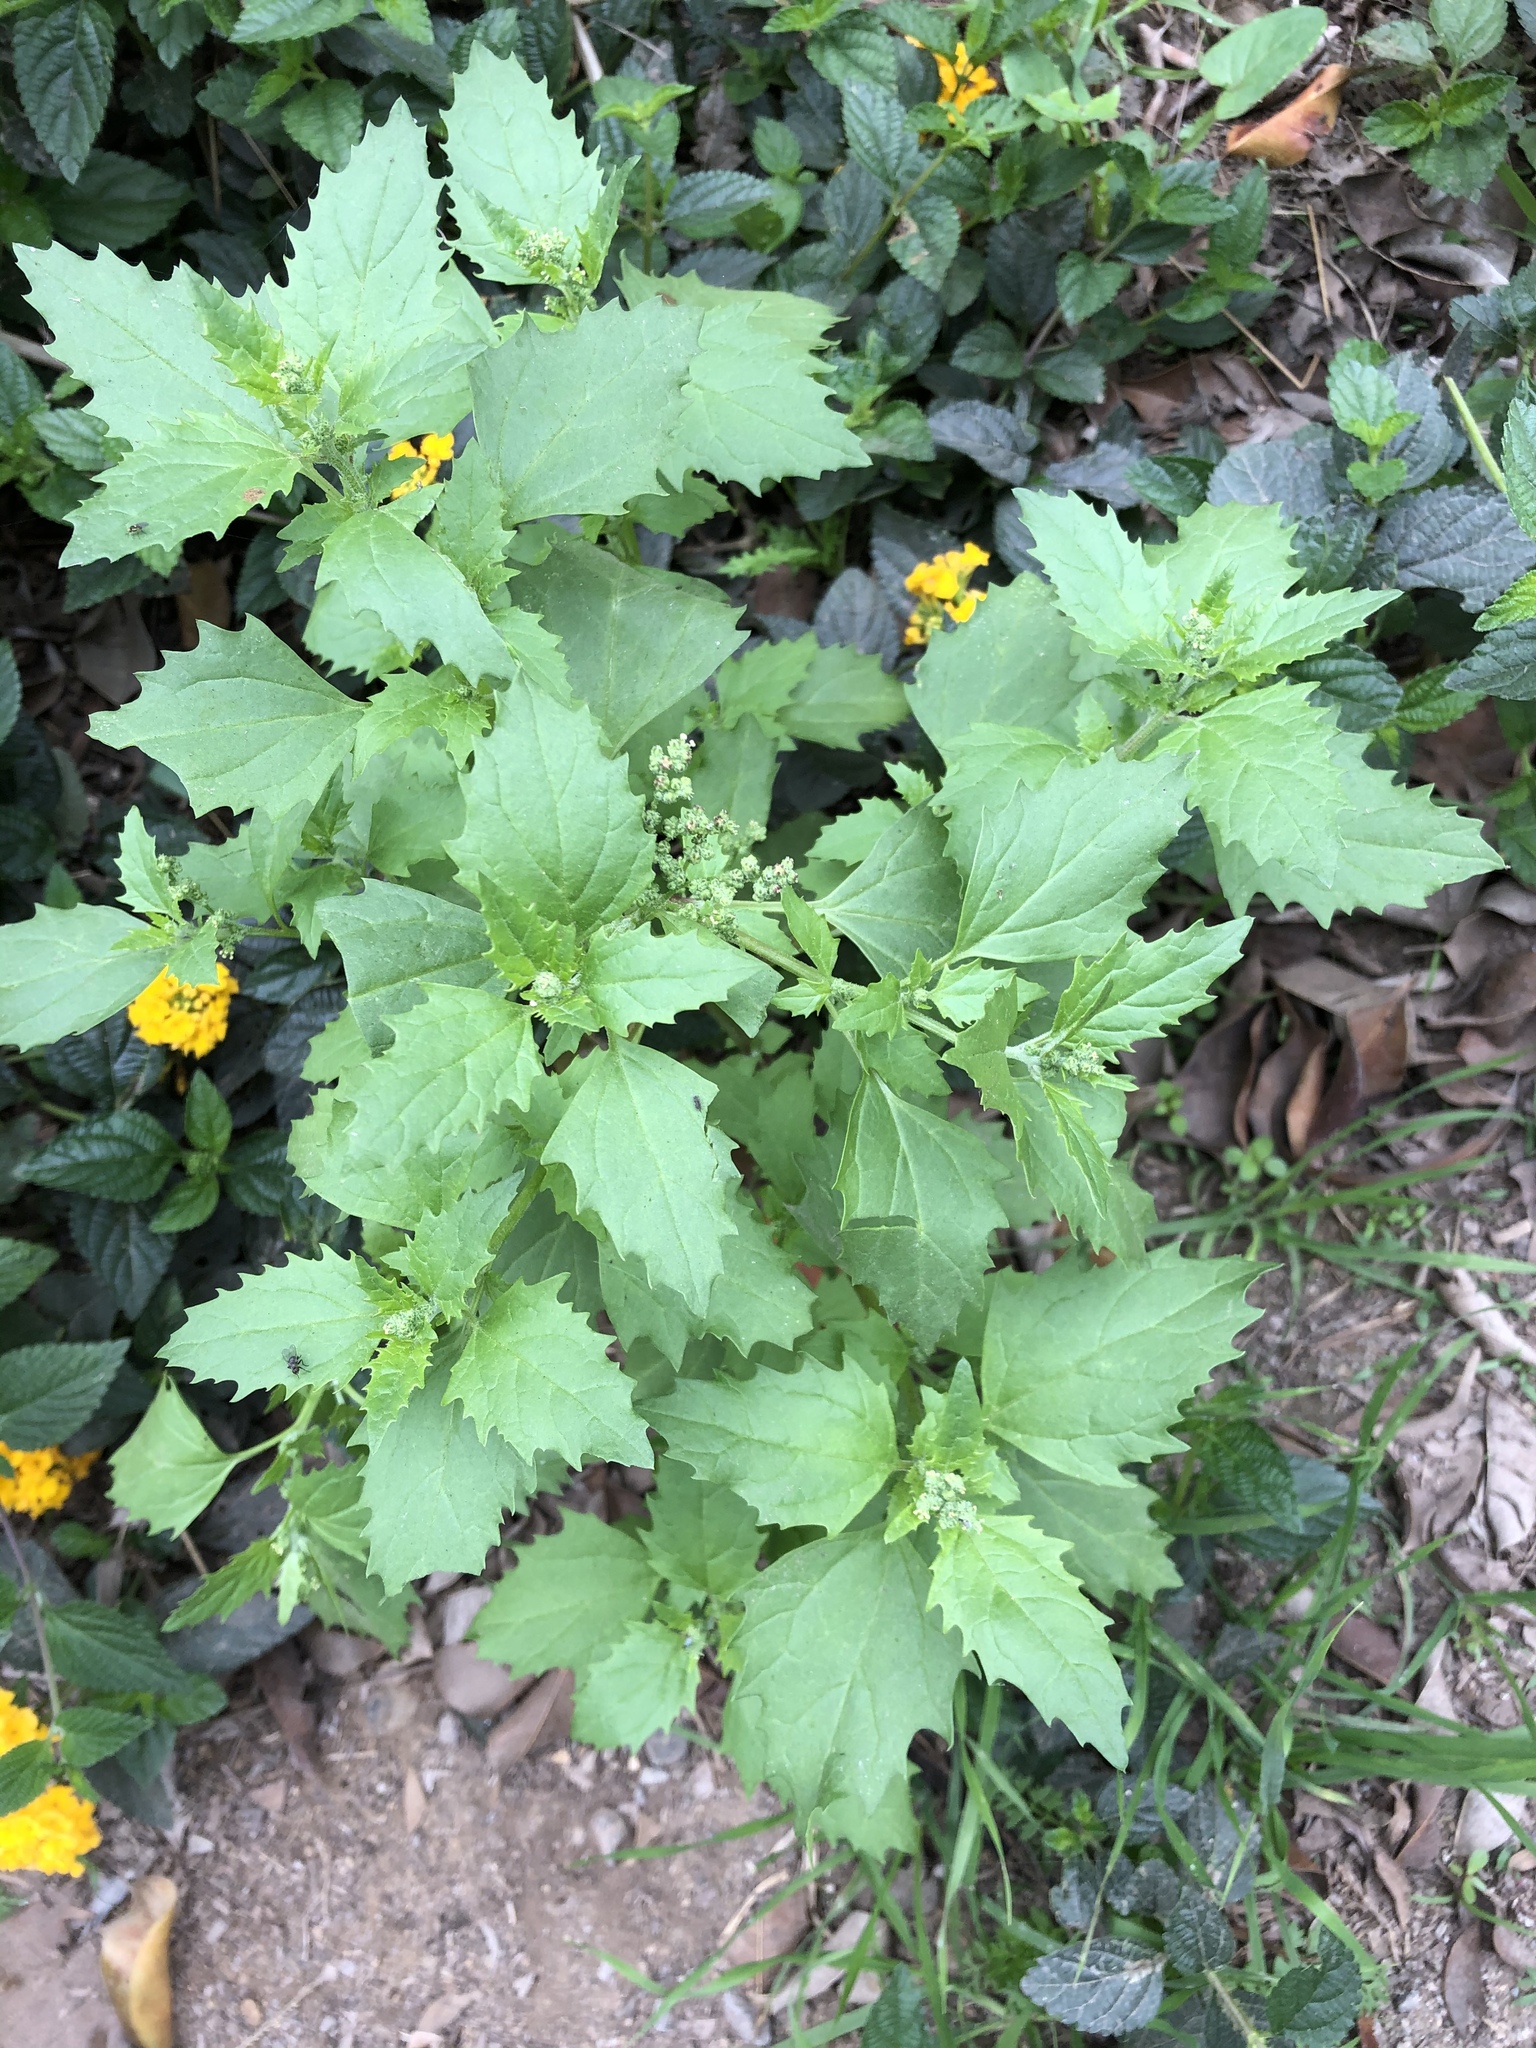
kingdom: Plantae
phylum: Tracheophyta
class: Magnoliopsida
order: Caryophyllales
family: Amaranthaceae
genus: Chenopodiastrum
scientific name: Chenopodiastrum murale
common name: Sowbane
